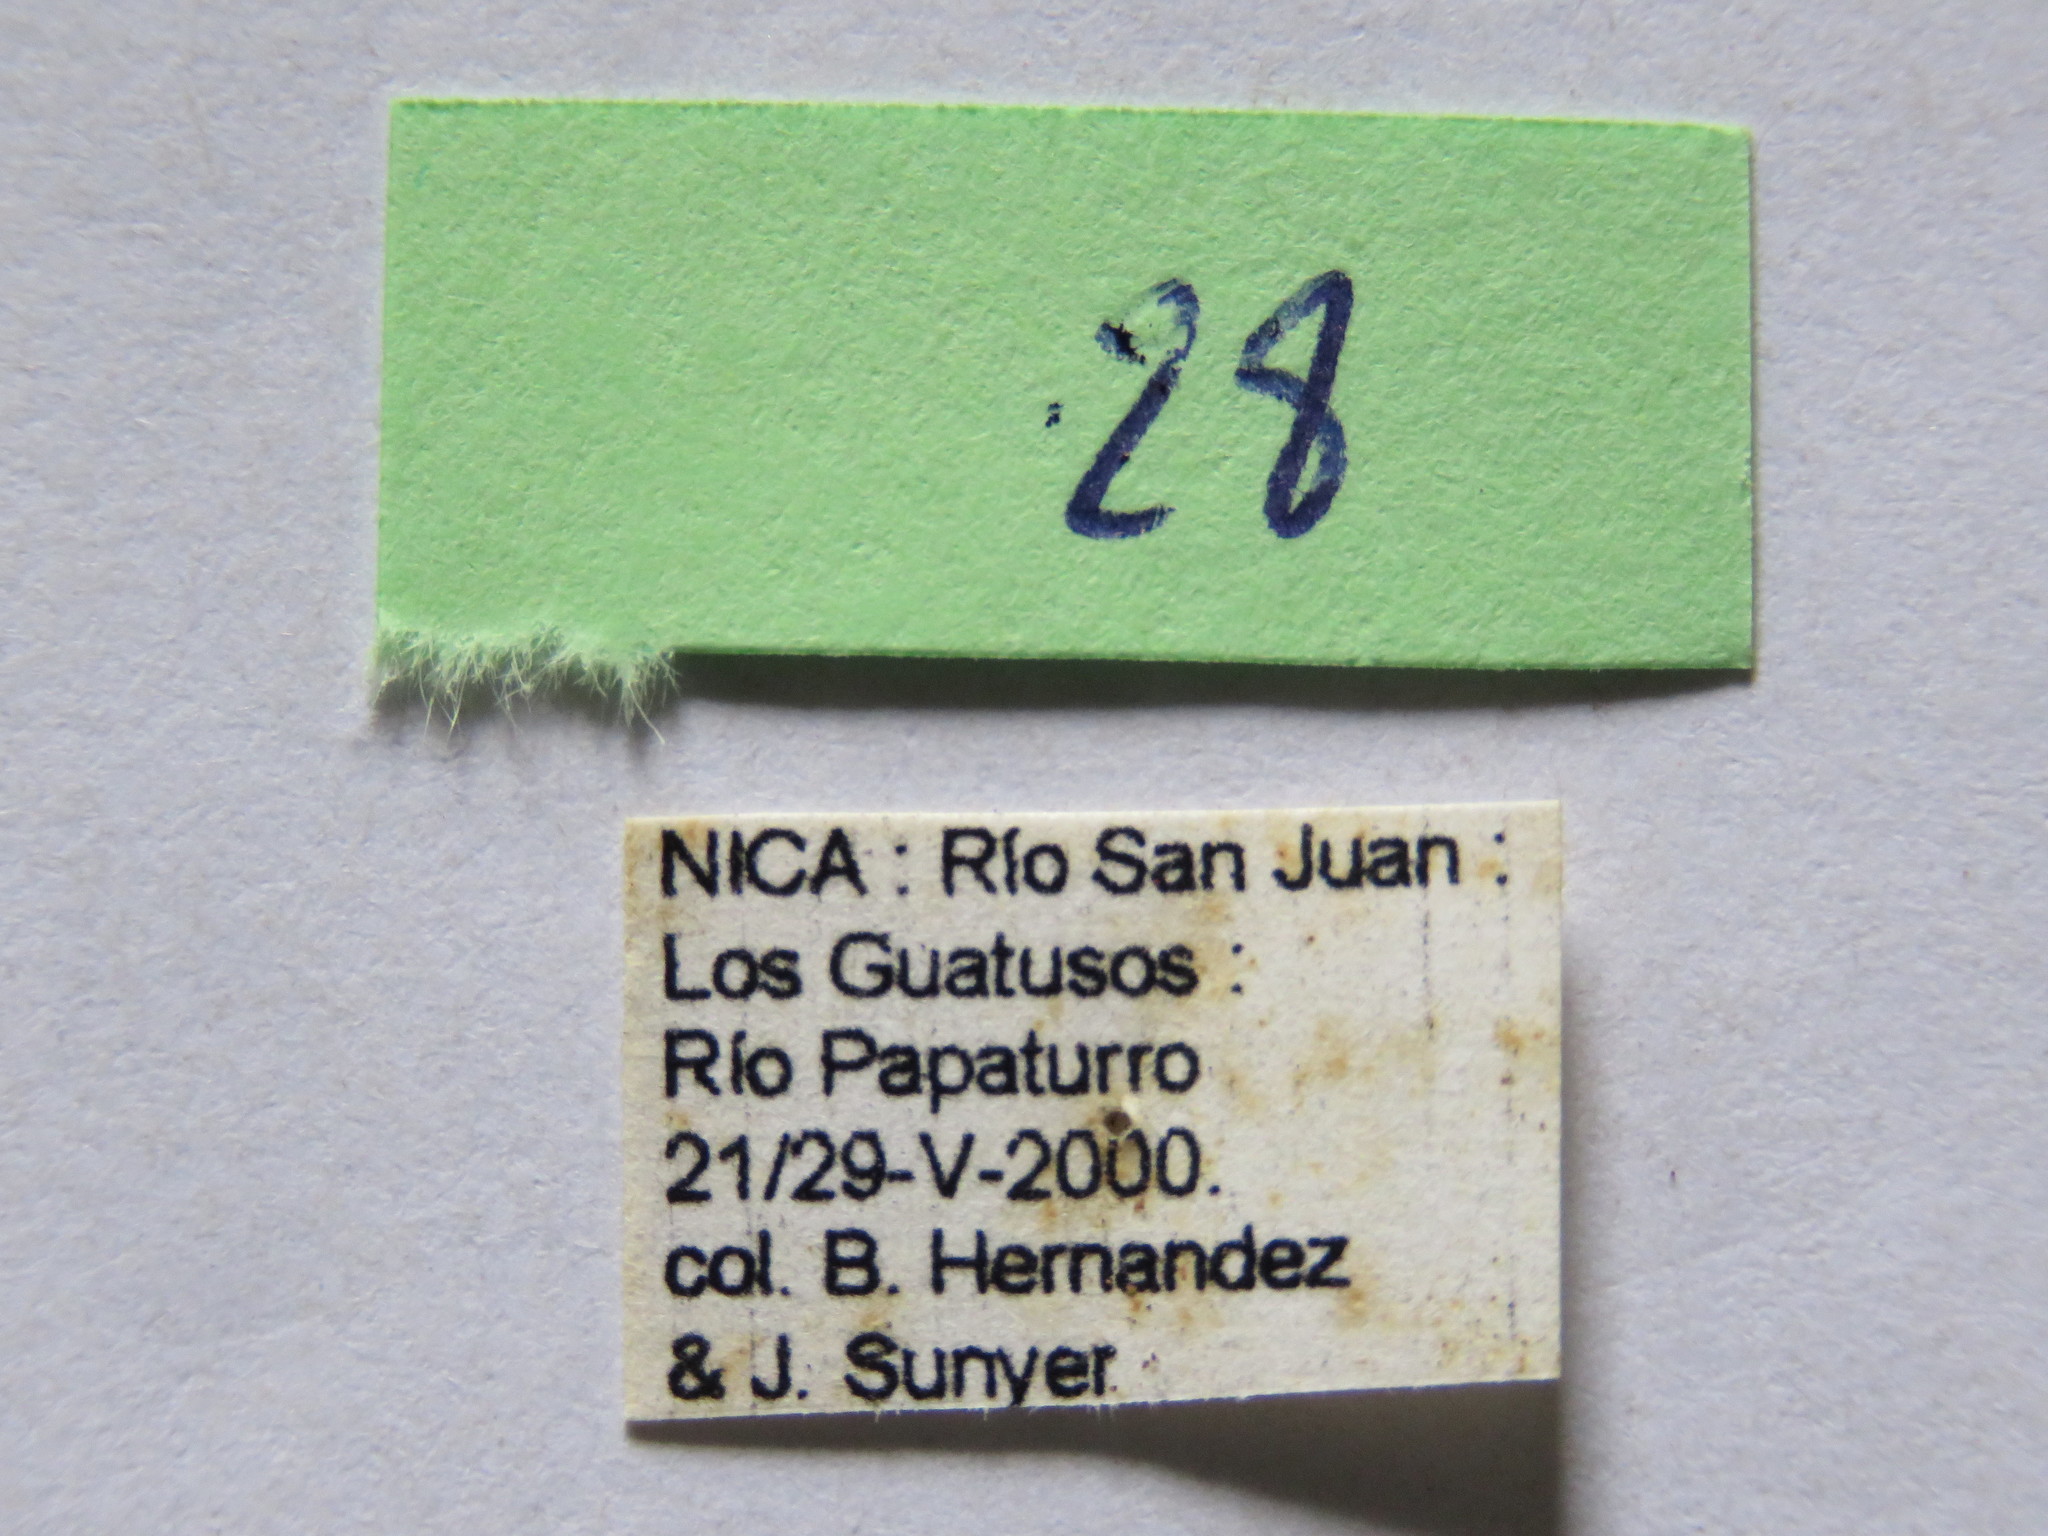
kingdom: Animalia
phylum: Arthropoda
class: Insecta
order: Hemiptera
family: Coreidae
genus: Leptoscelis
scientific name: Leptoscelis tricolor
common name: Heliconia bug
